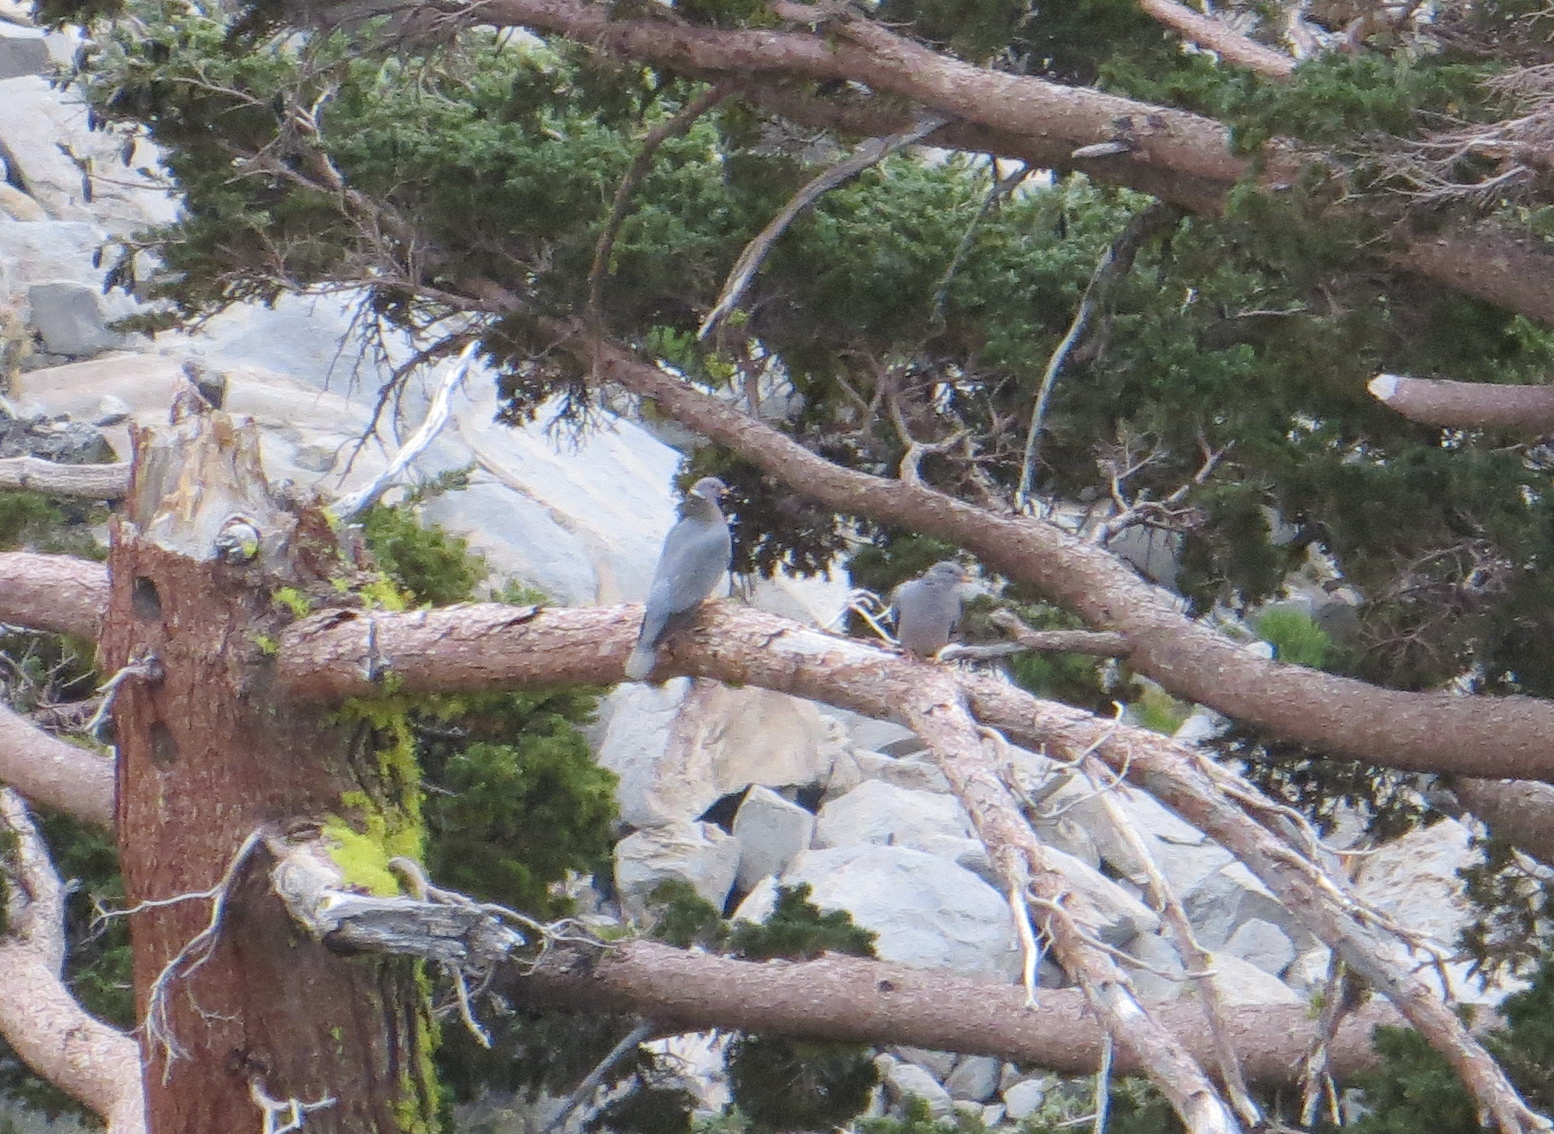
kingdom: Animalia
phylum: Chordata
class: Aves
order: Columbiformes
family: Columbidae
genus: Patagioenas
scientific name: Patagioenas fasciata
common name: Band-tailed pigeon
